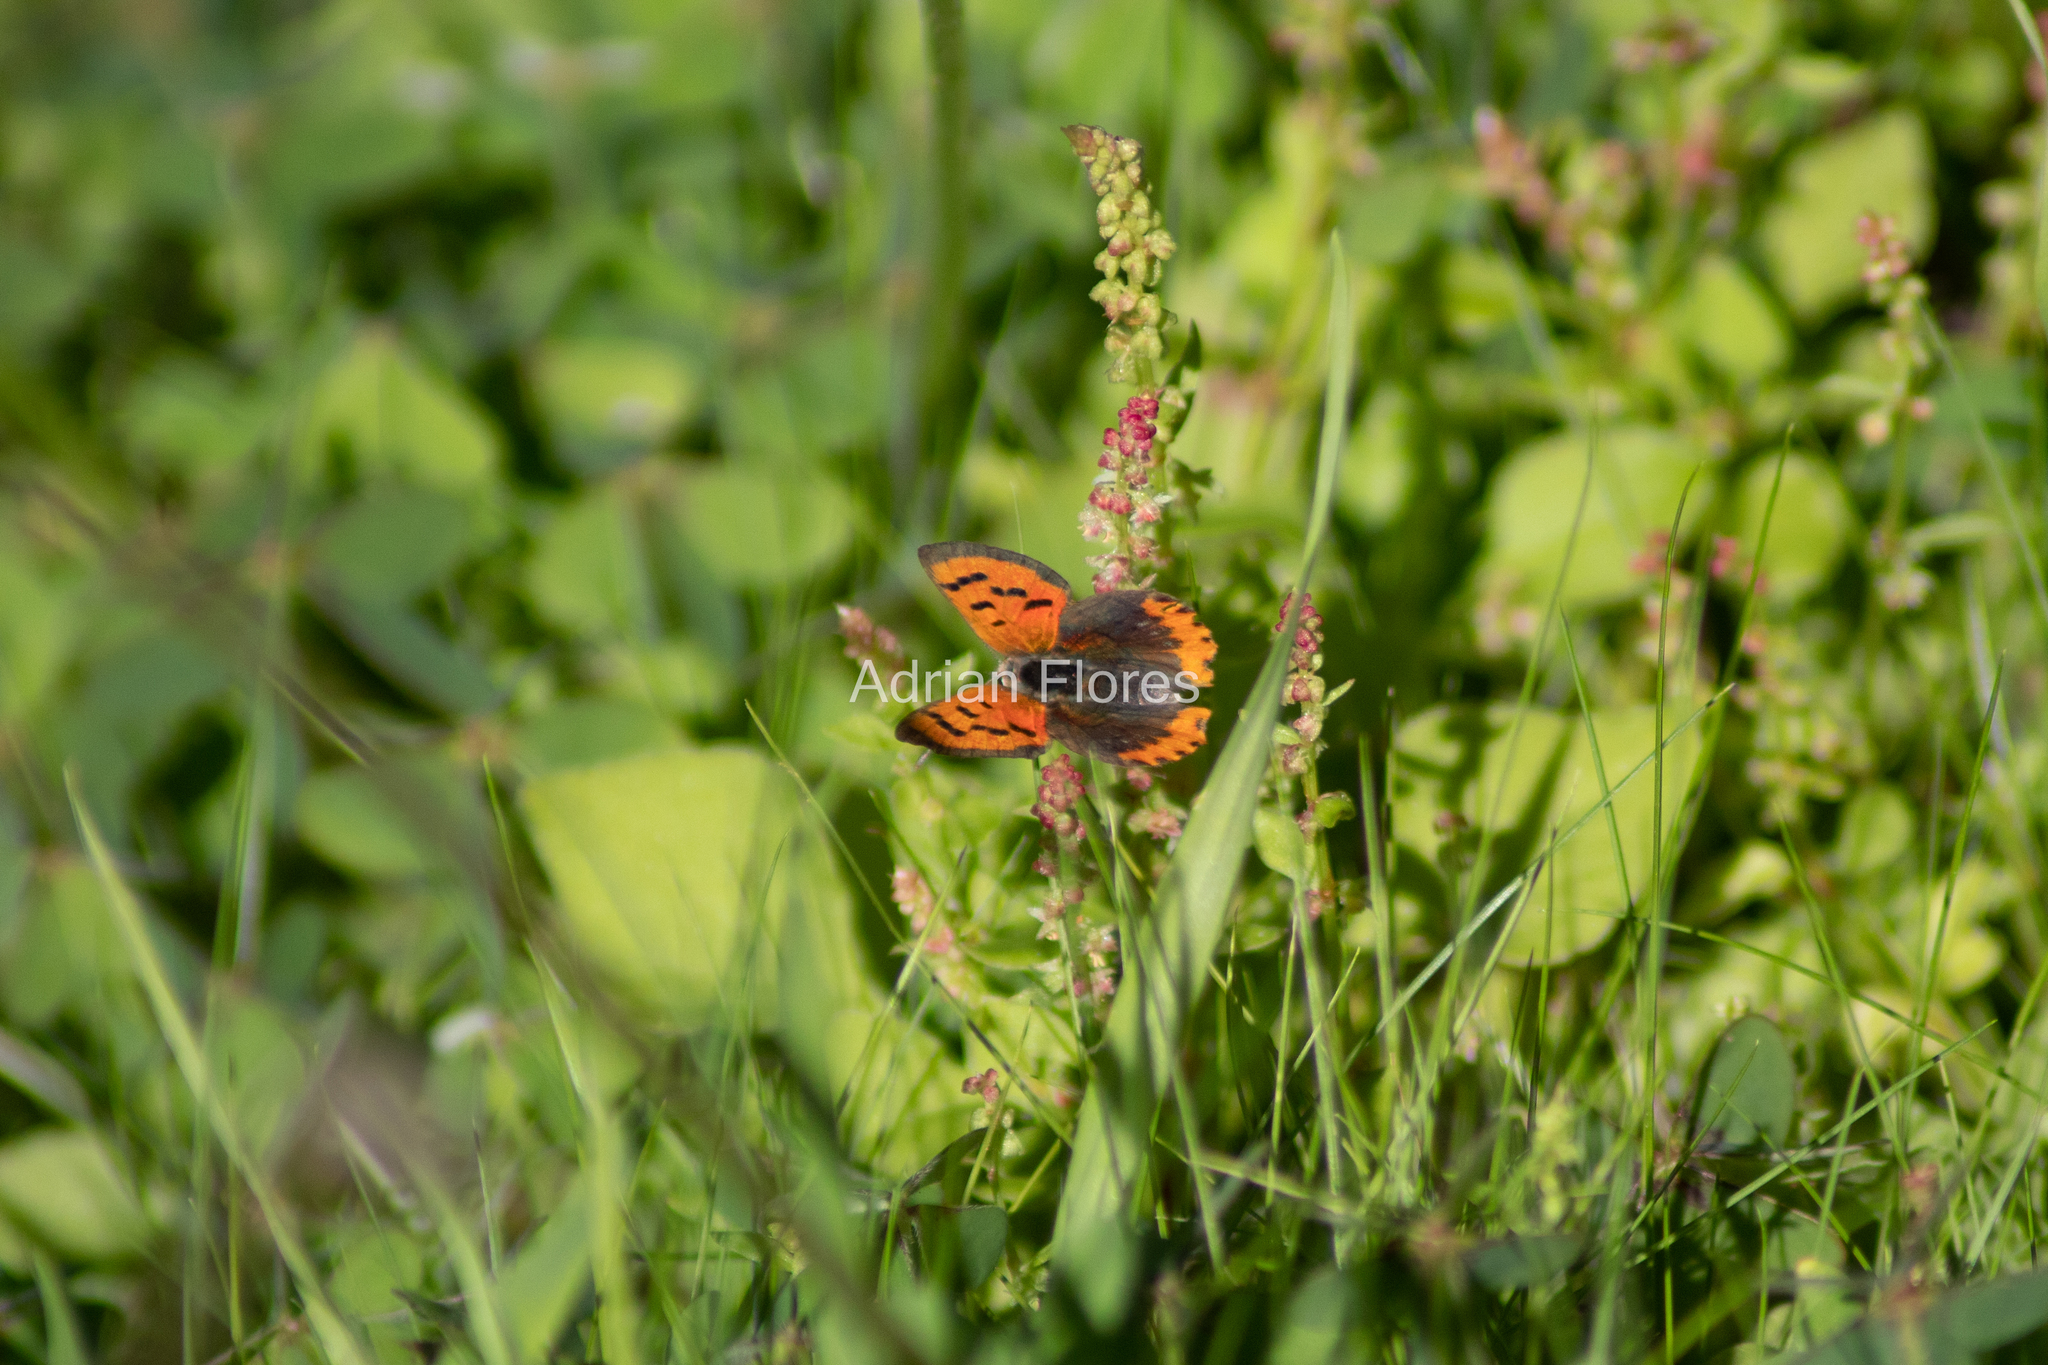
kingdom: Animalia
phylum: Arthropoda
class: Insecta
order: Lepidoptera
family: Lycaenidae
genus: Lycaena
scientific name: Lycaena phlaeas
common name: Small copper
